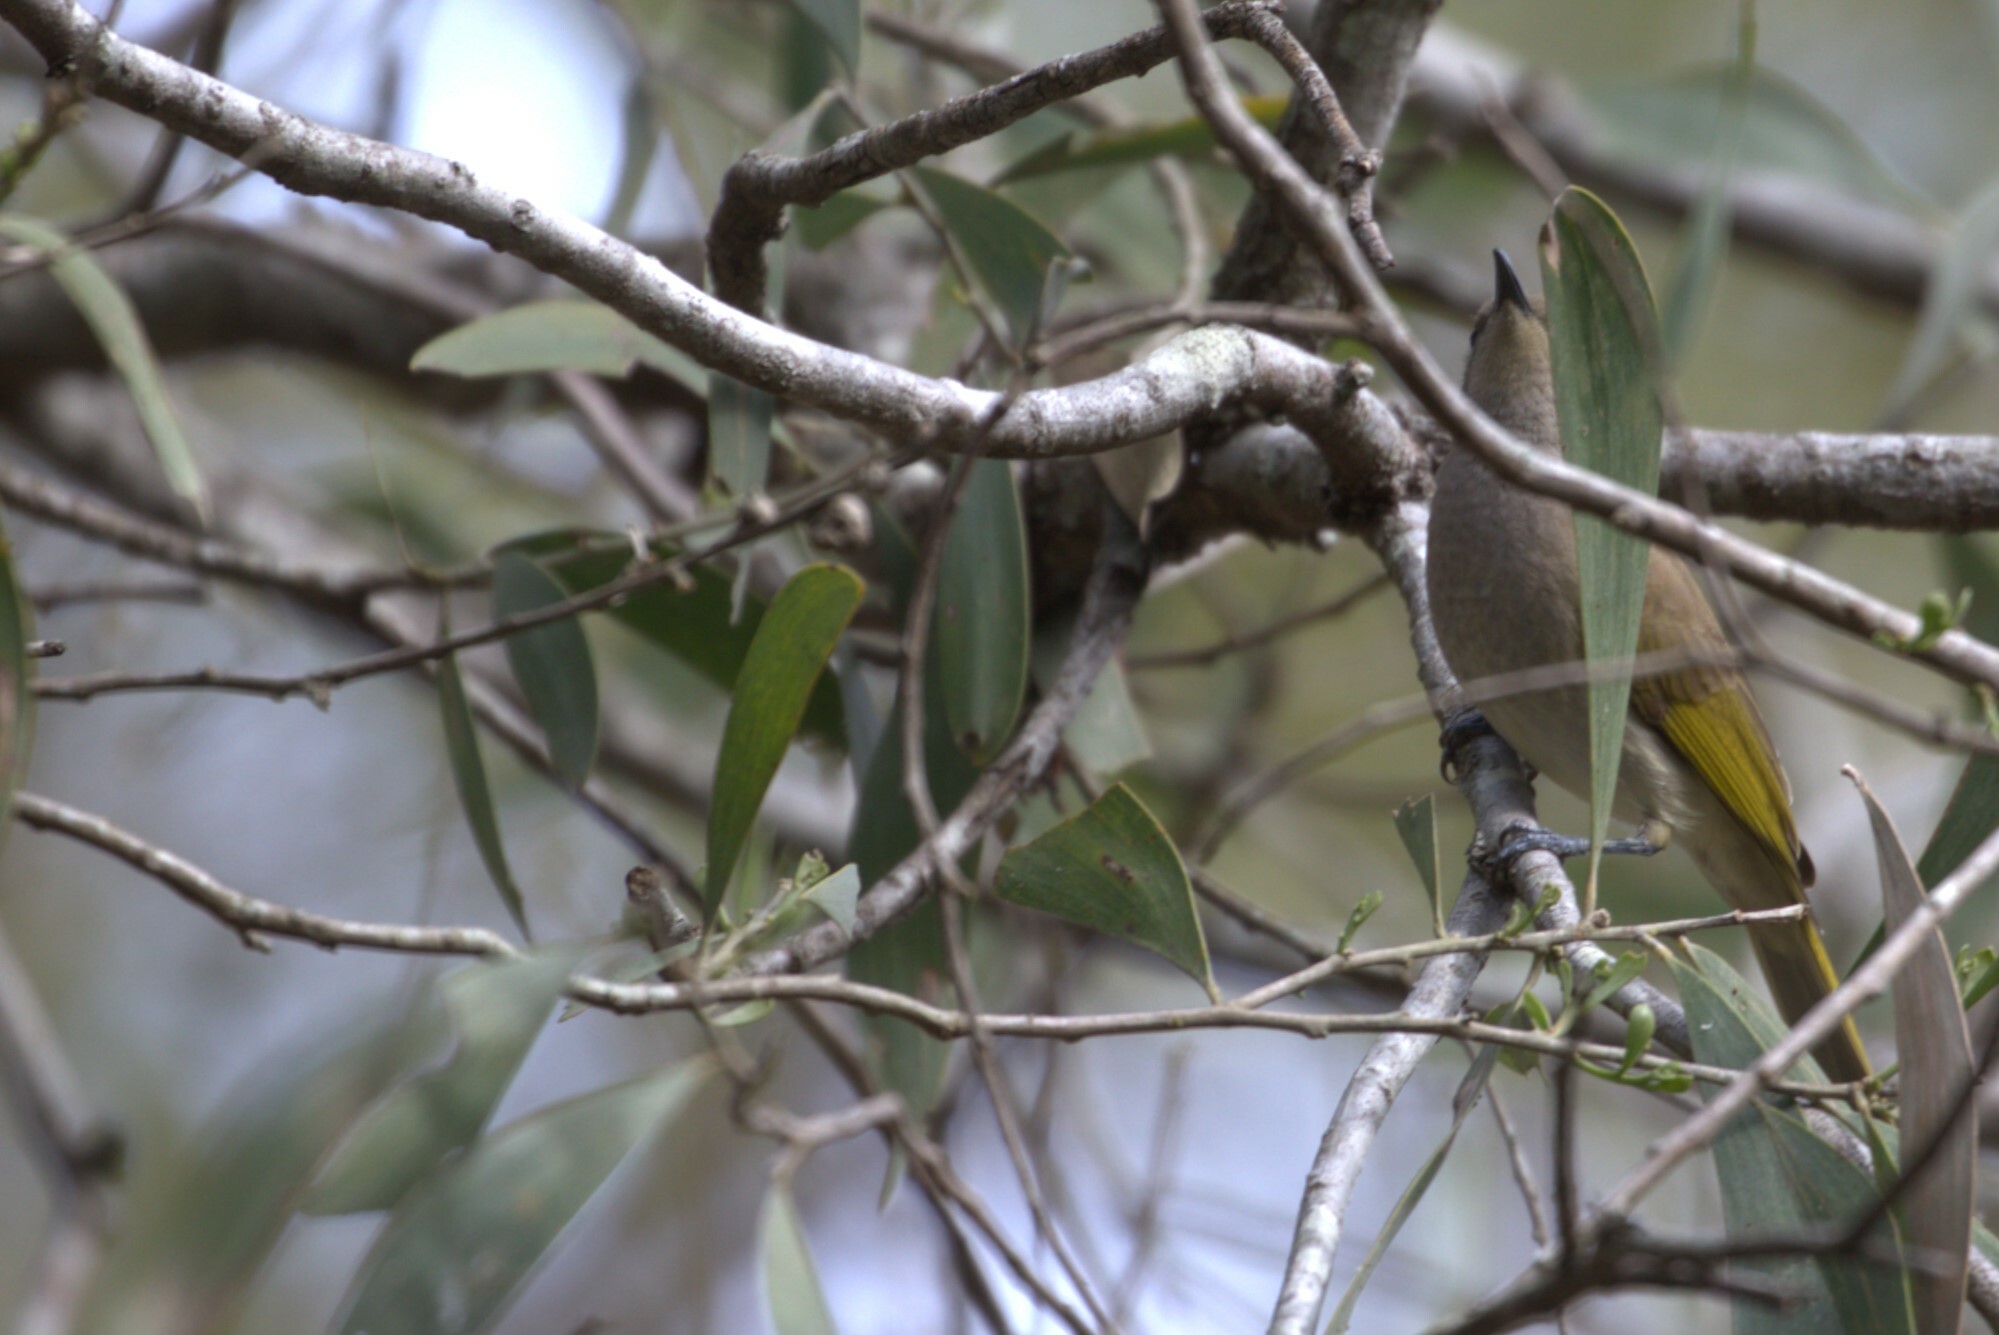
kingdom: Animalia
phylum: Chordata
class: Aves
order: Passeriformes
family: Meliphagidae
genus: Lichmera
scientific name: Lichmera indistincta
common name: Brown honeyeater
